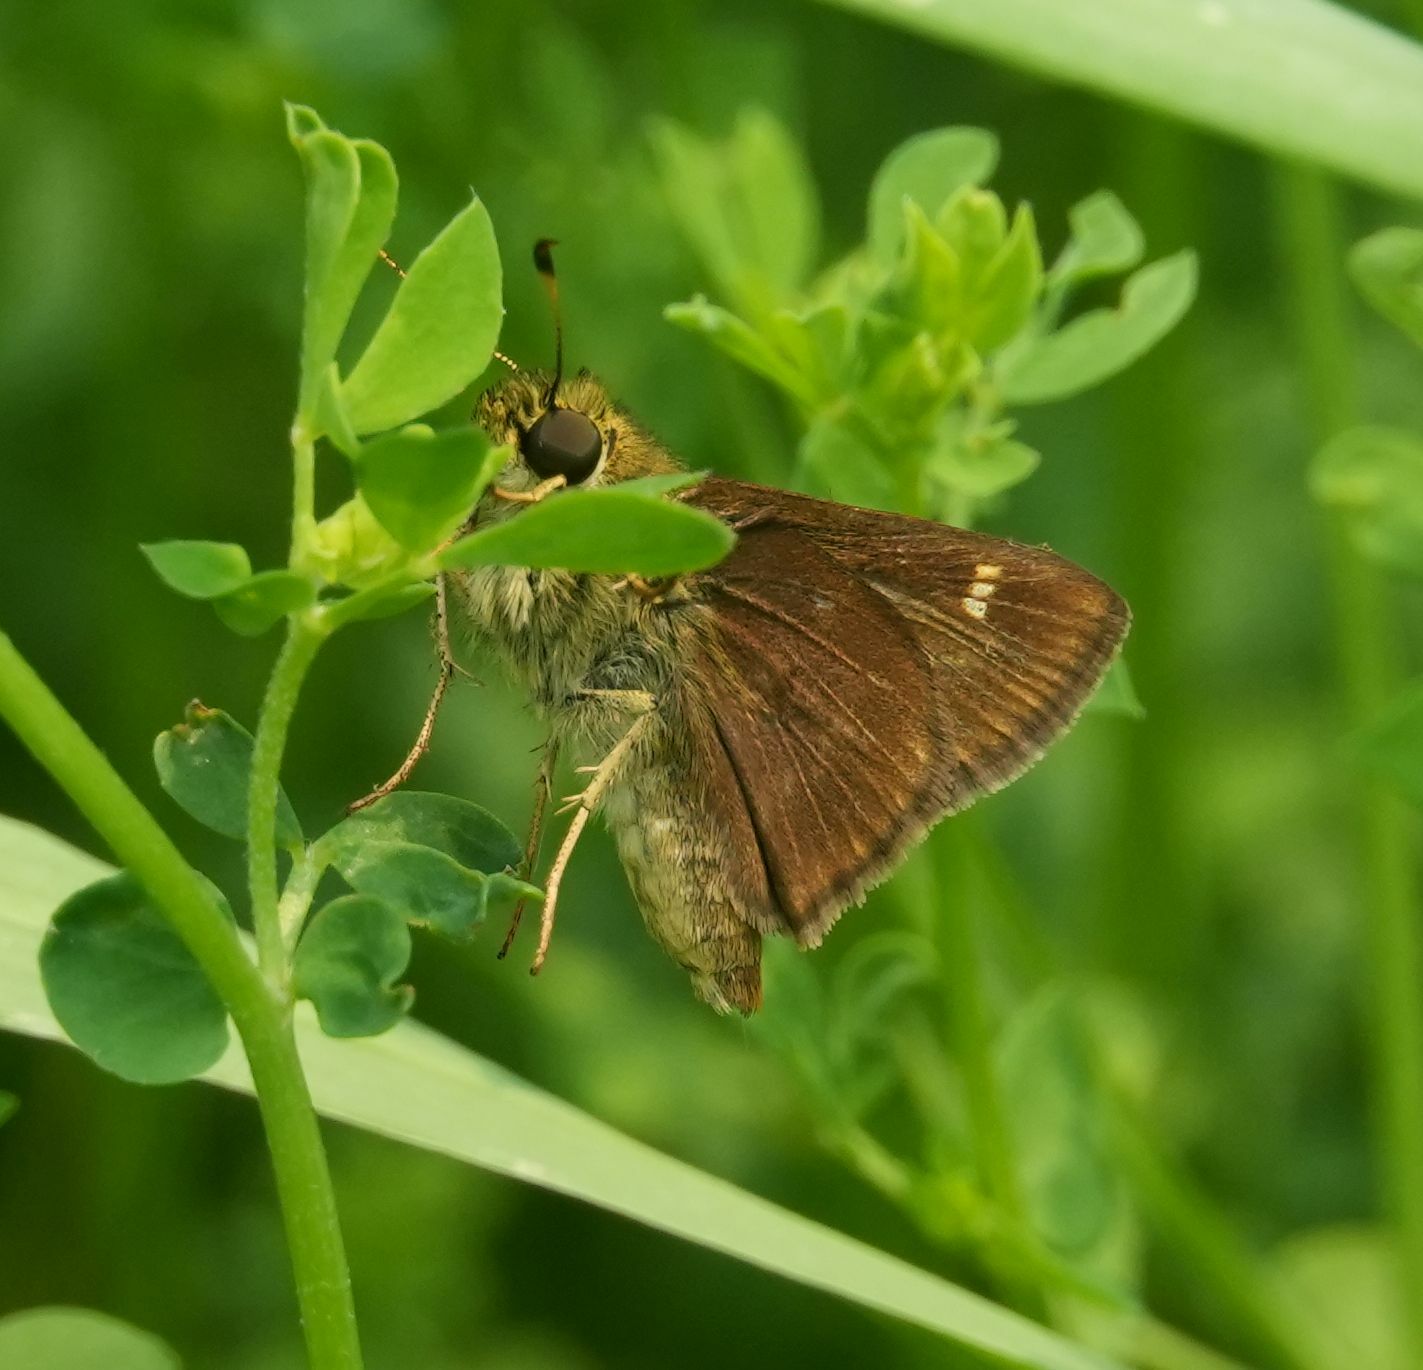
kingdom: Animalia
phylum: Arthropoda
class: Insecta
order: Lepidoptera
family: Hesperiidae
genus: Vernia
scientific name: Vernia verna
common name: Little glassywing
